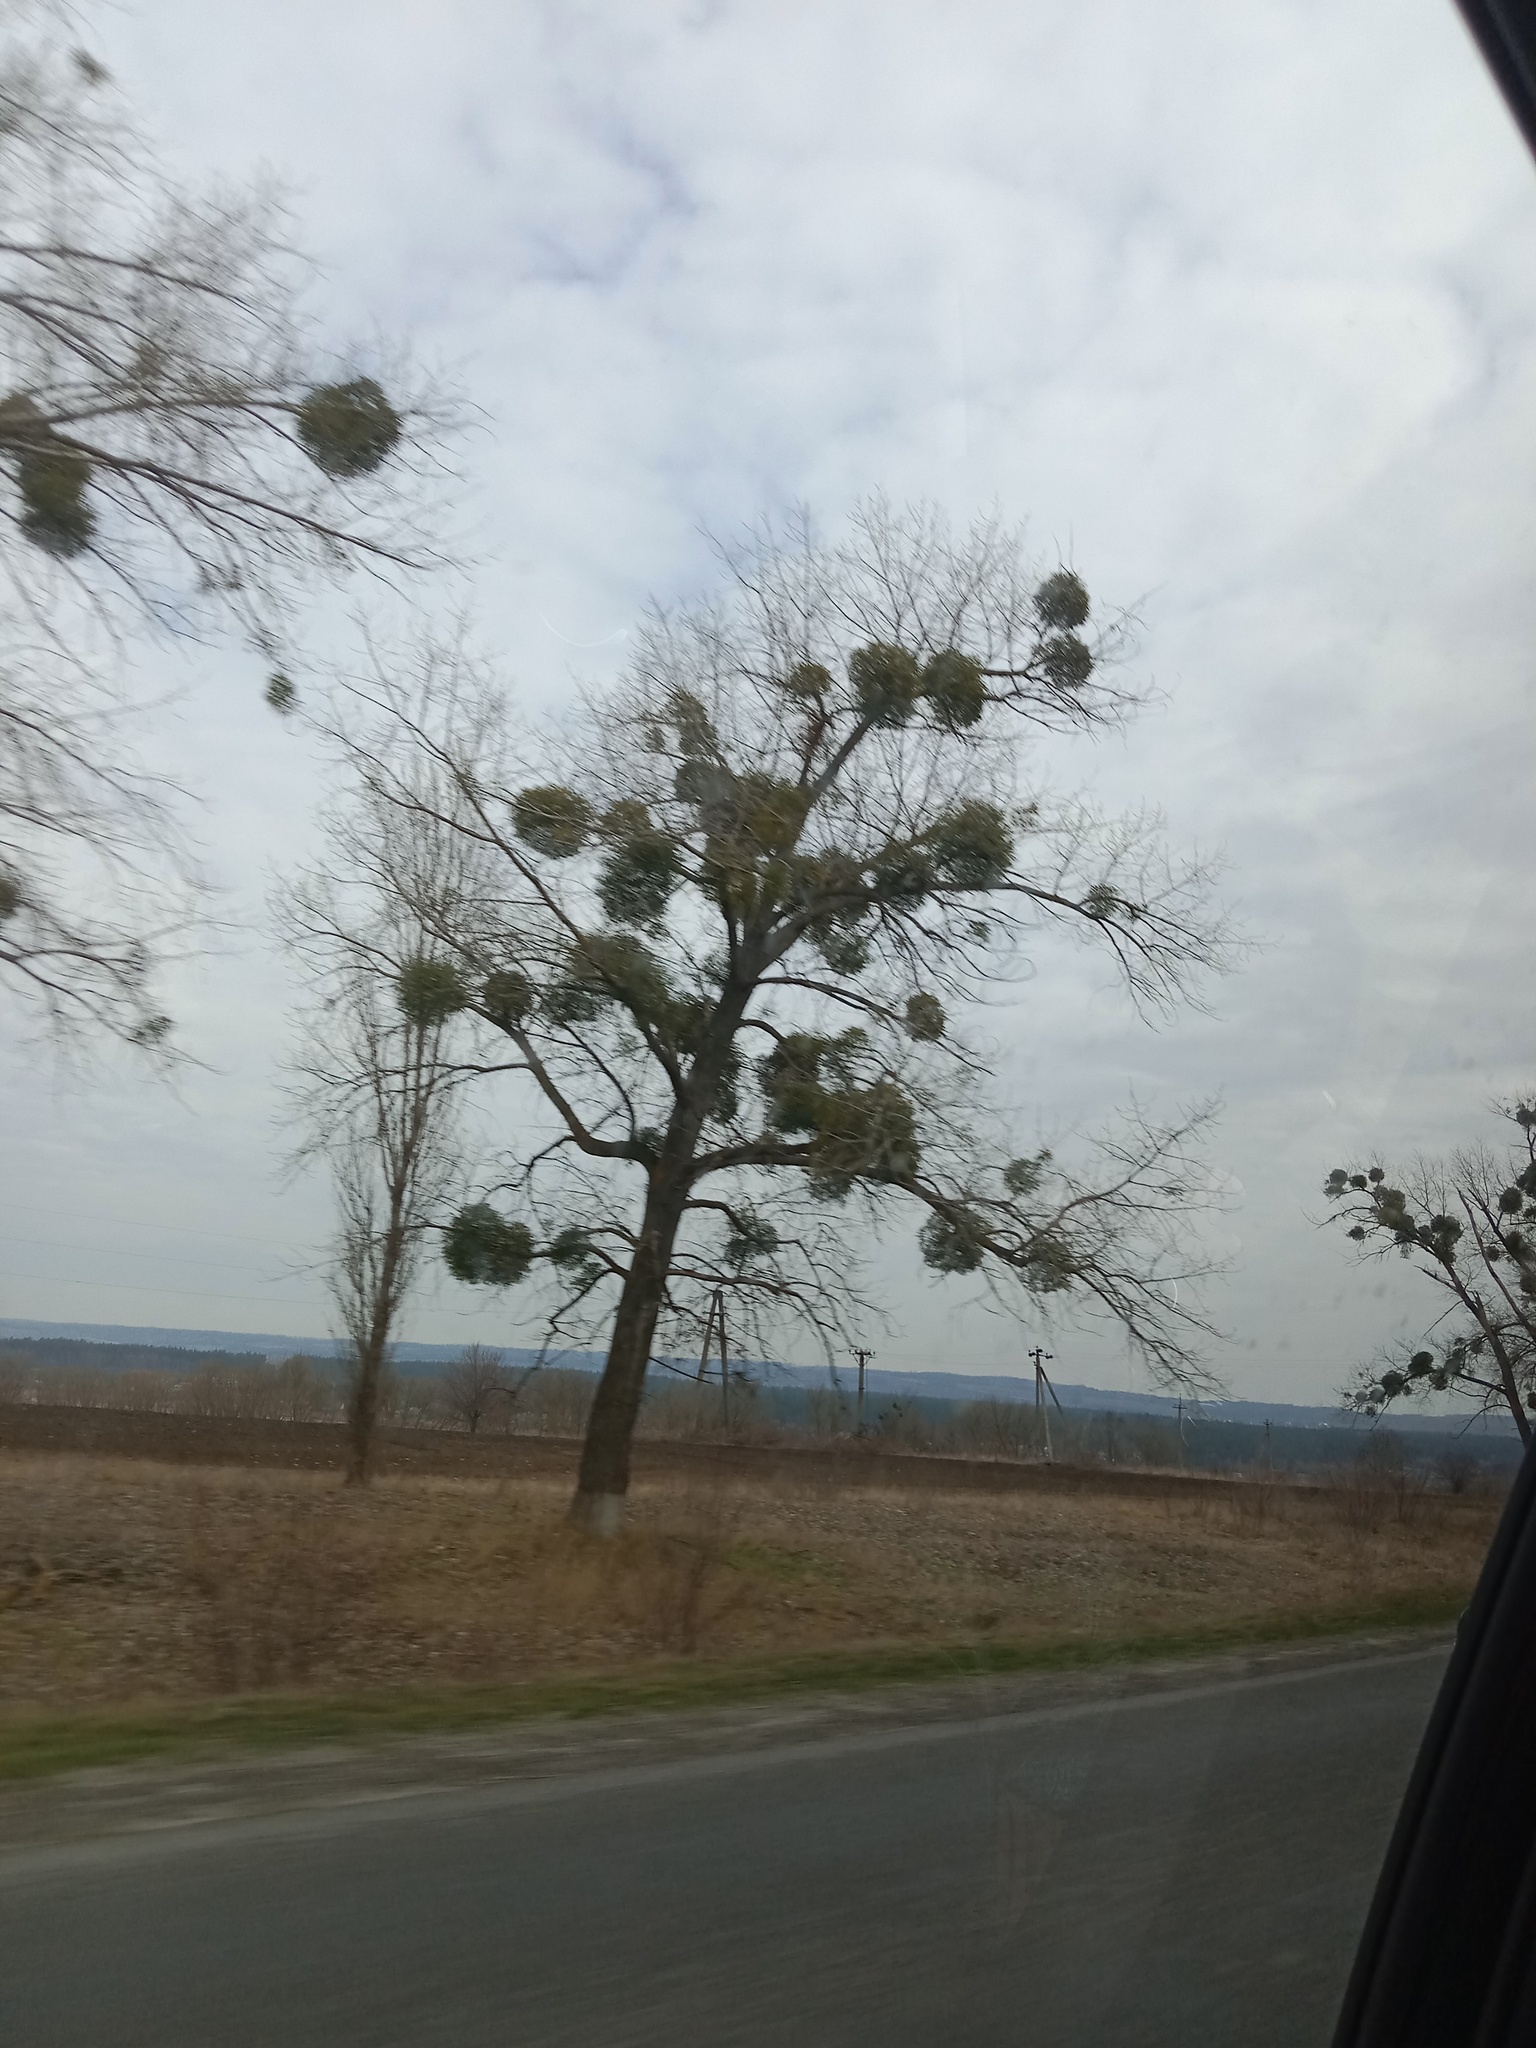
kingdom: Plantae
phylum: Tracheophyta
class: Magnoliopsida
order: Santalales
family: Viscaceae
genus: Viscum
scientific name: Viscum album
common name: Mistletoe
